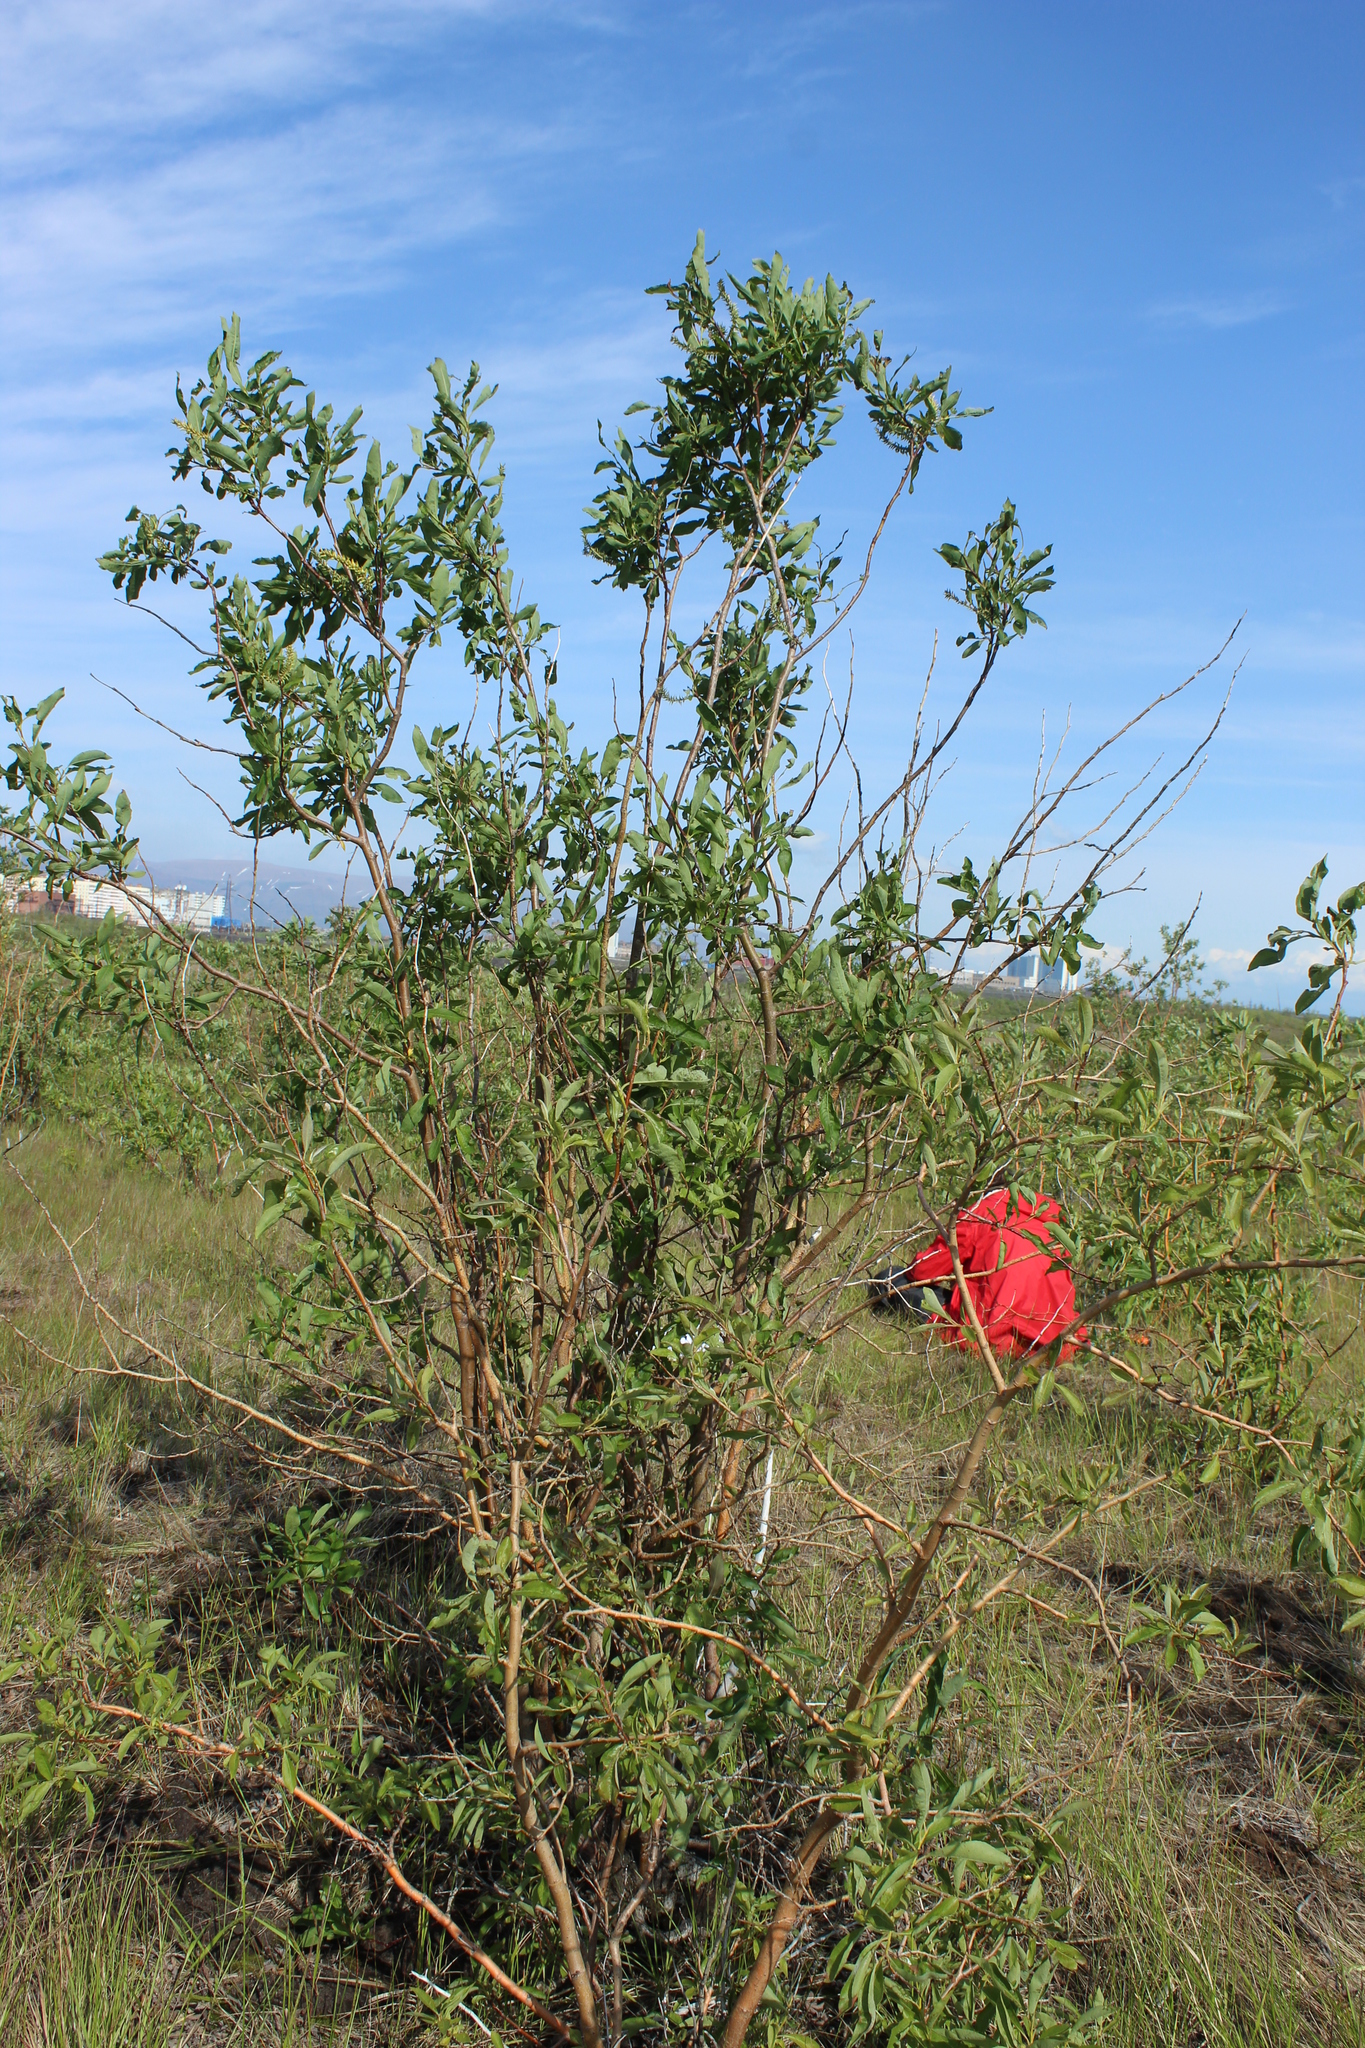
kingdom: Plantae
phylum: Tracheophyta
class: Magnoliopsida
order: Malpighiales
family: Salicaceae
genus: Salix
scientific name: Salix phylicifolia
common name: Tea-leaved willow
